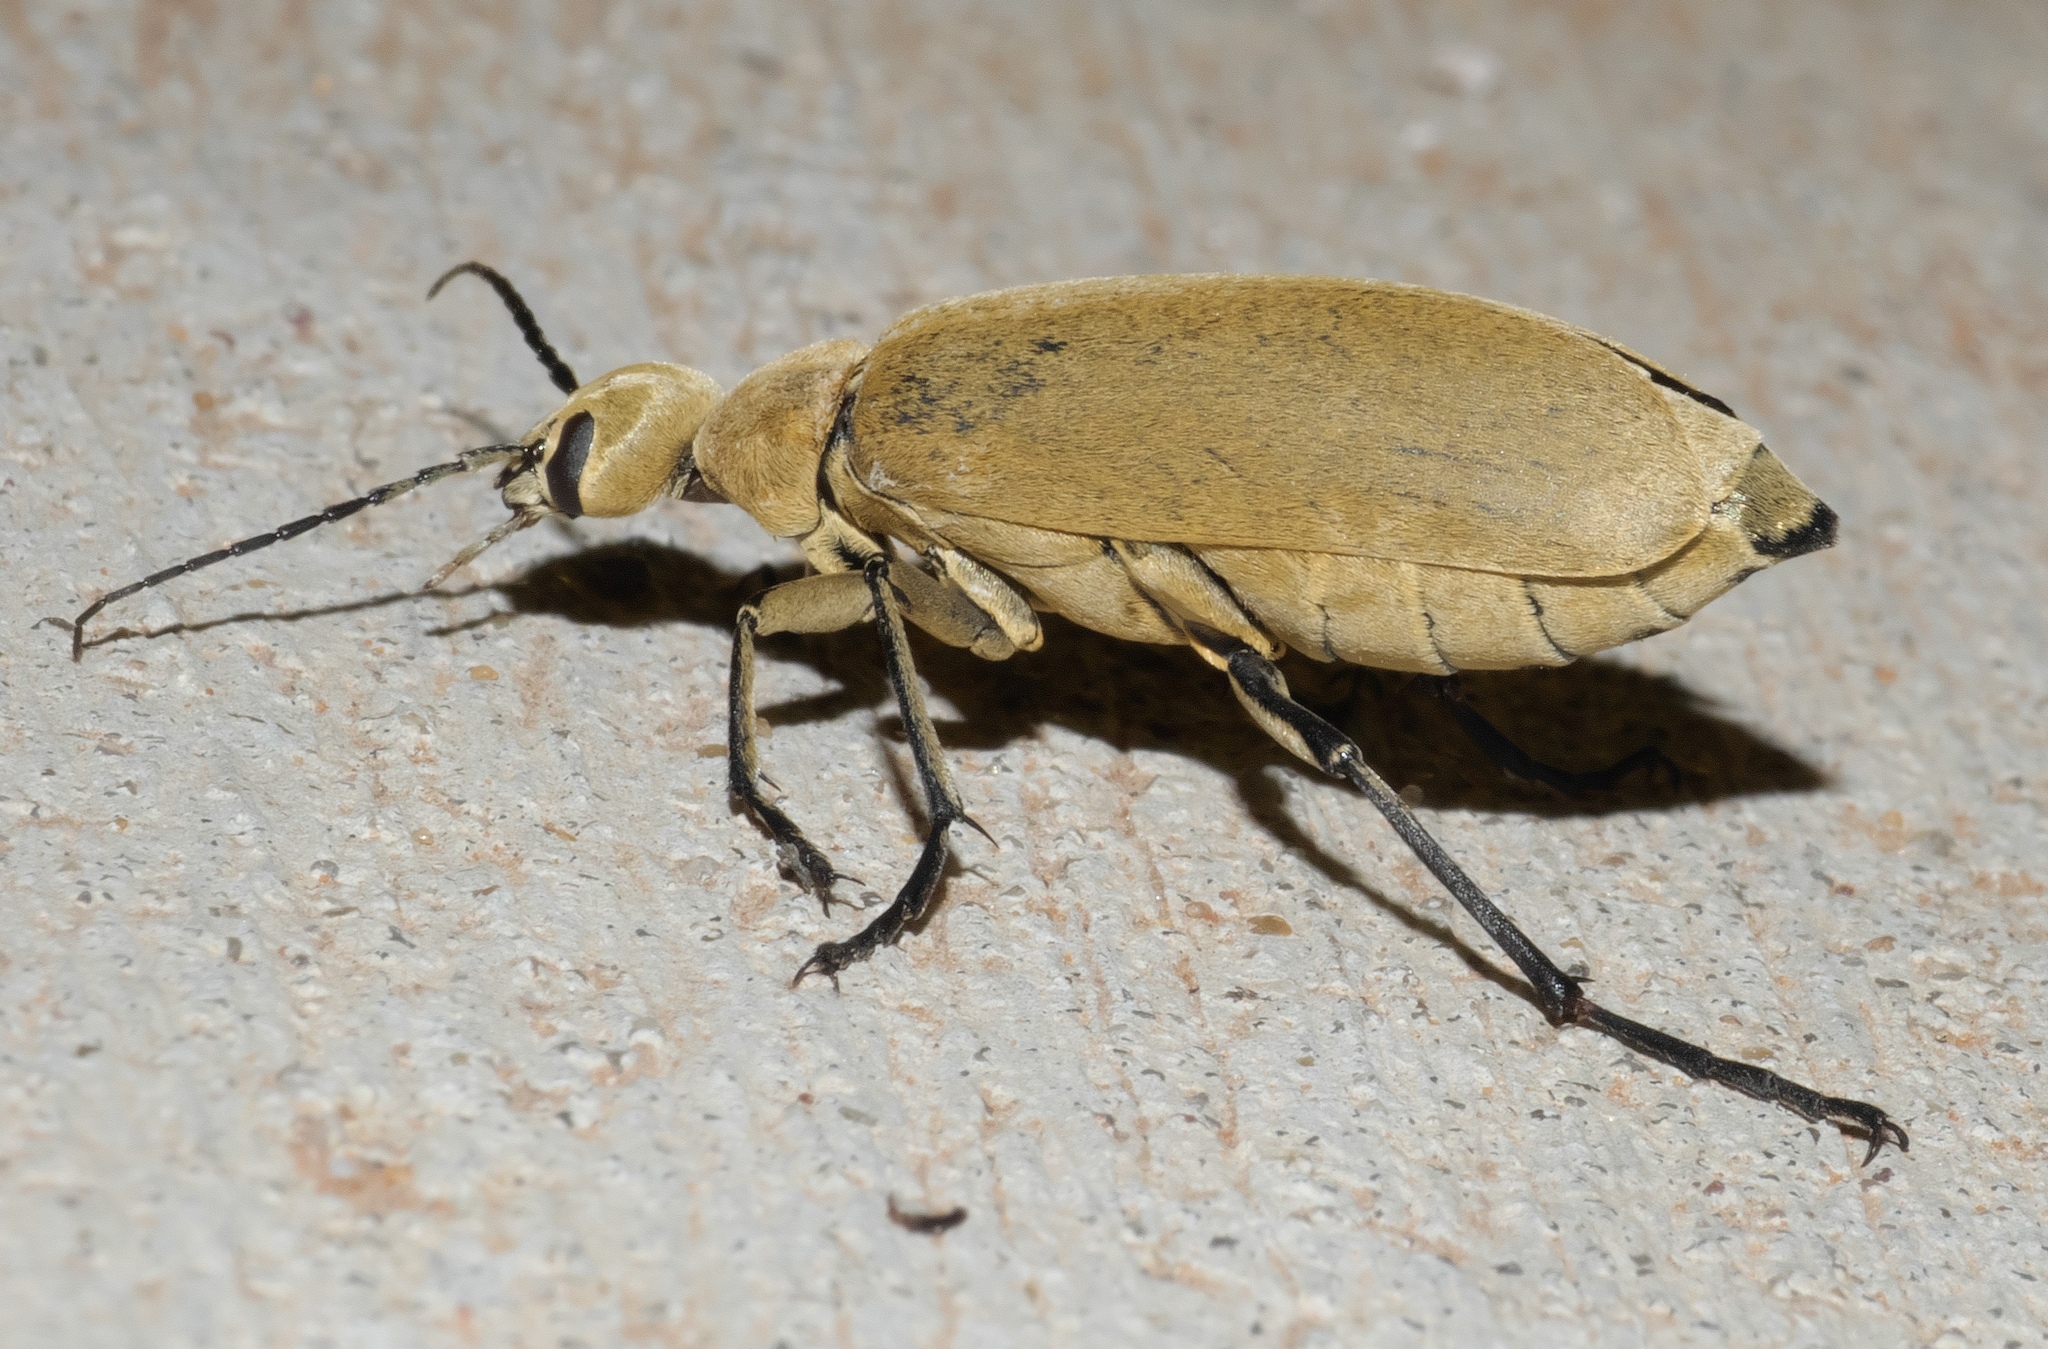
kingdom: Animalia
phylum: Arthropoda
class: Insecta
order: Coleoptera
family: Meloidae
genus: Epicauta
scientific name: Epicauta immaculata
